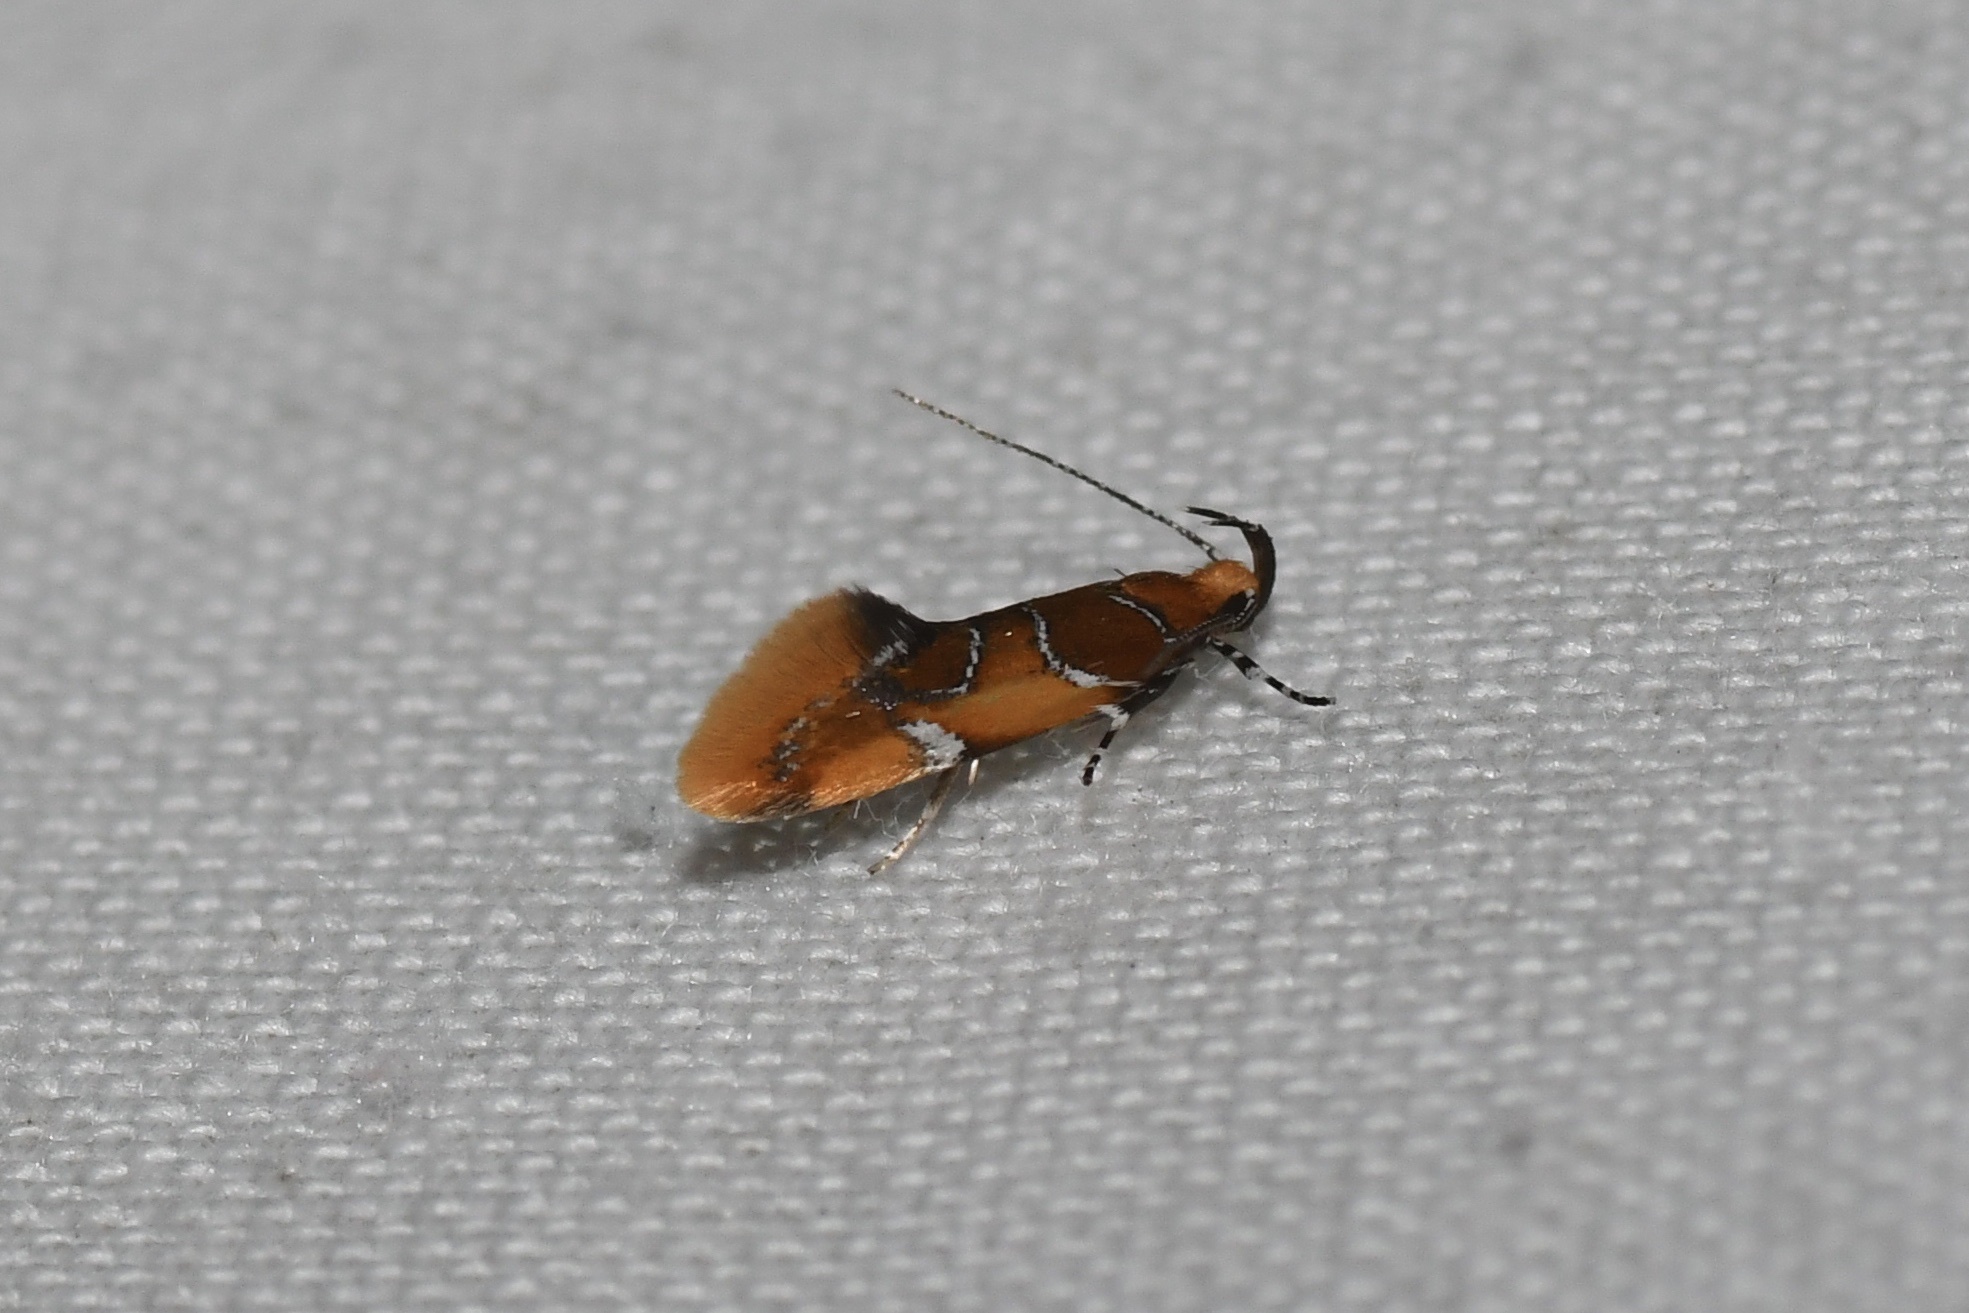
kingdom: Animalia
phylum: Arthropoda
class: Insecta
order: Lepidoptera
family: Oecophoridae
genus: Callima
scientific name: Callima argenticinctella
